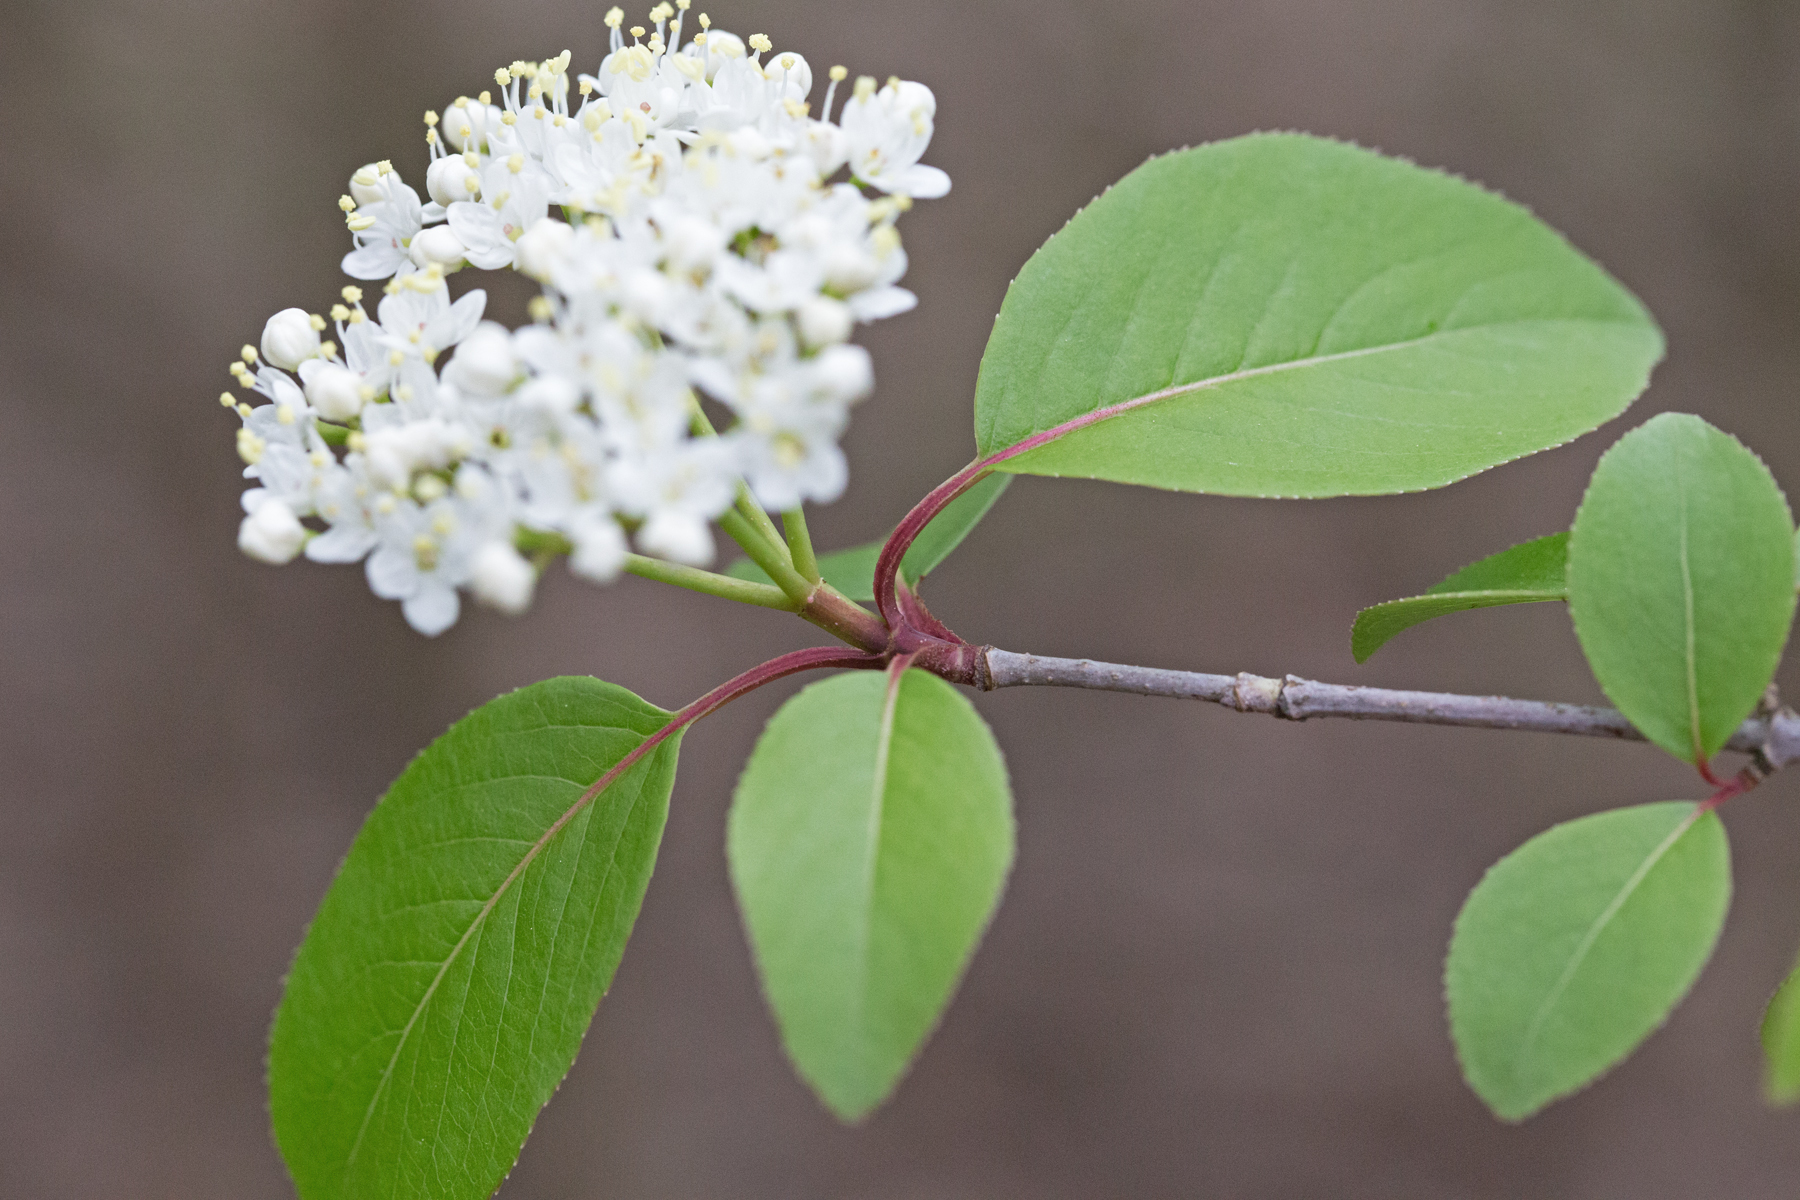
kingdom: Plantae
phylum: Tracheophyta
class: Magnoliopsida
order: Dipsacales
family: Viburnaceae
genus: Viburnum
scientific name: Viburnum prunifolium
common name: Black haw
